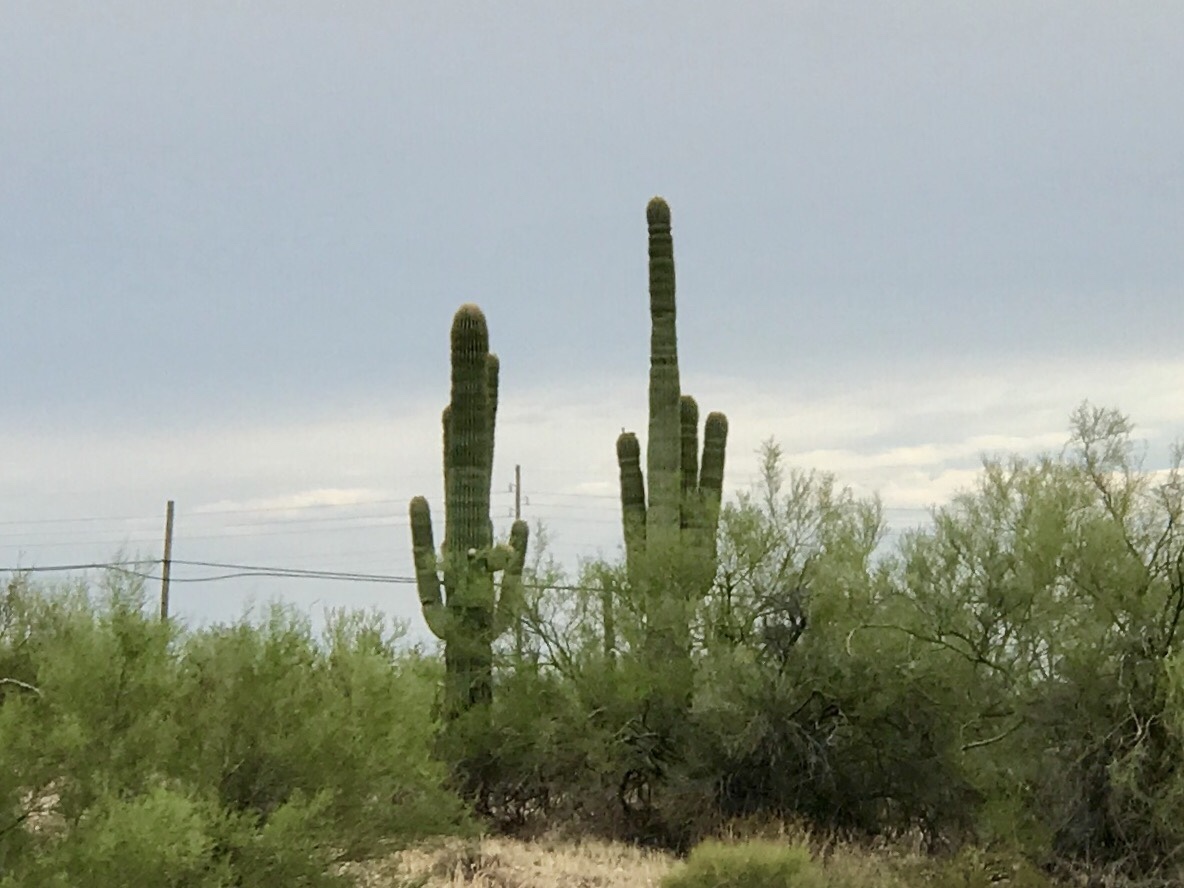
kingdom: Plantae
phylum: Tracheophyta
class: Magnoliopsida
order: Caryophyllales
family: Cactaceae
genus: Carnegiea
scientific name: Carnegiea gigantea
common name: Saguaro
